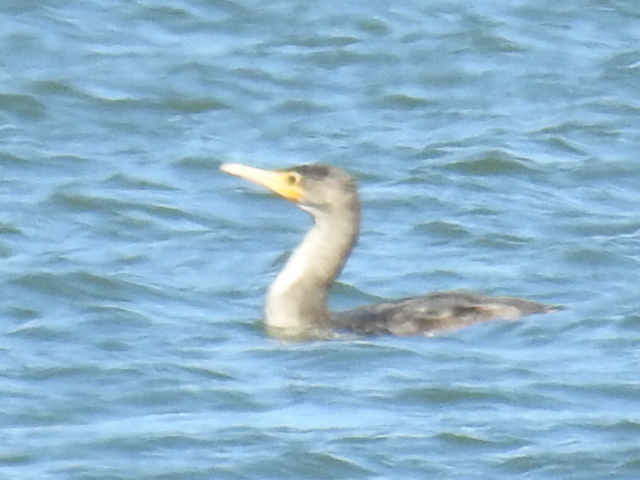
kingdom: Animalia
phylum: Chordata
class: Aves
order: Suliformes
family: Phalacrocoracidae
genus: Phalacrocorax
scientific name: Phalacrocorax auritus
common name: Double-crested cormorant
